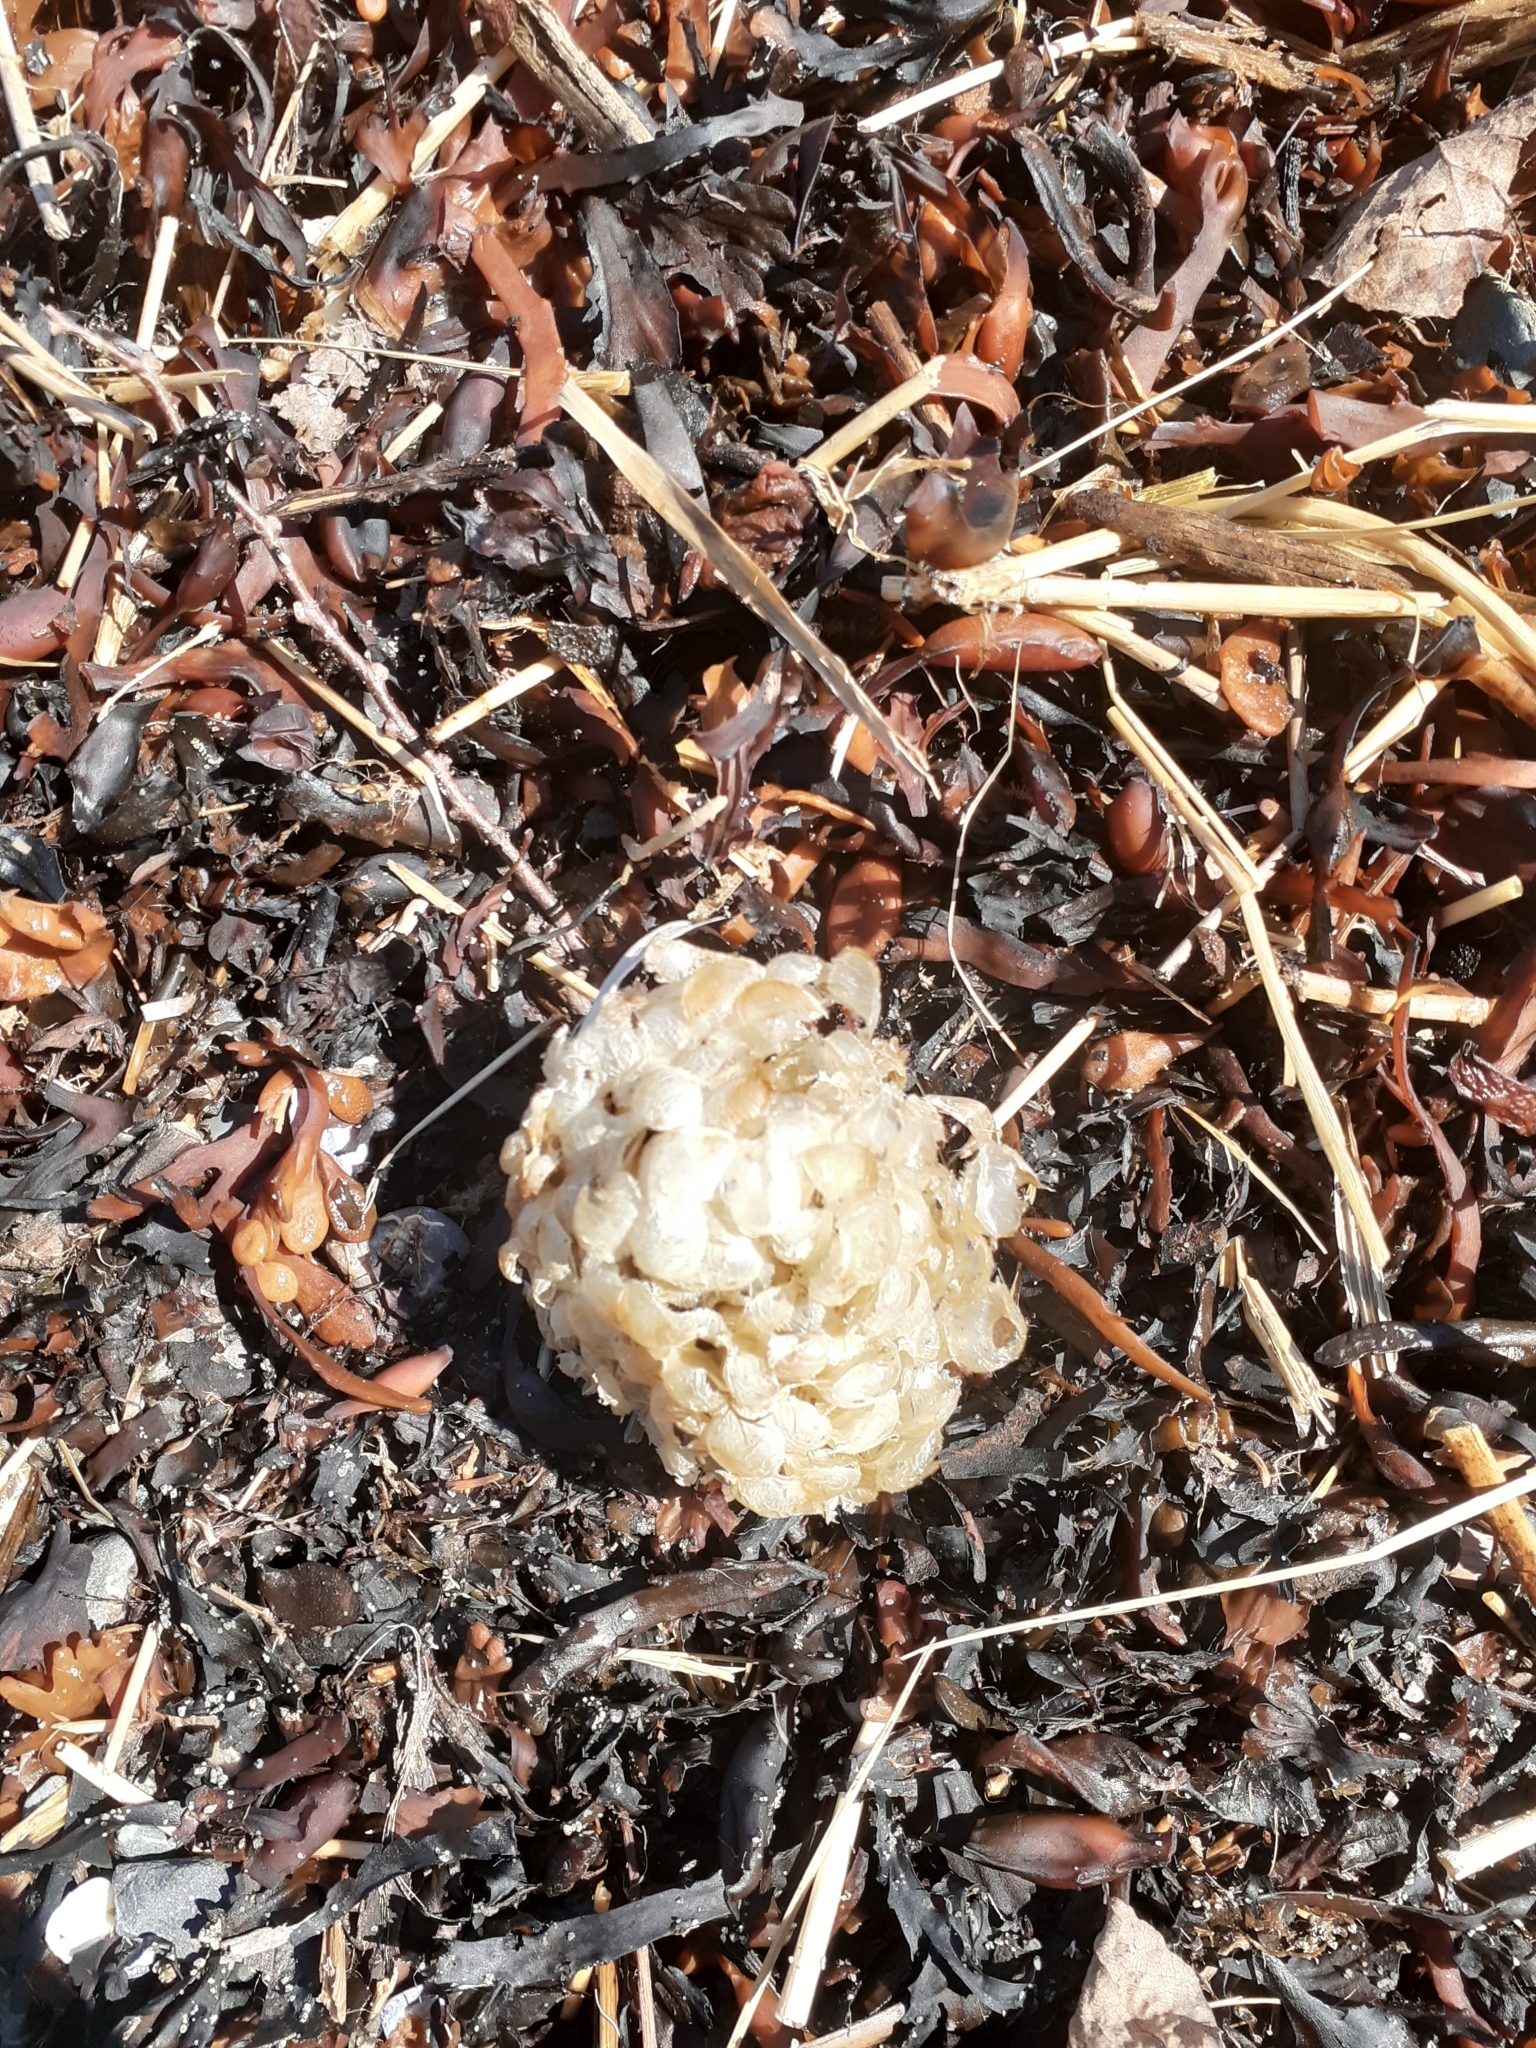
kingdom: Animalia
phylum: Mollusca
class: Gastropoda
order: Neogastropoda
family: Buccinidae
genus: Buccinum
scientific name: Buccinum undatum
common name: Common whelk
